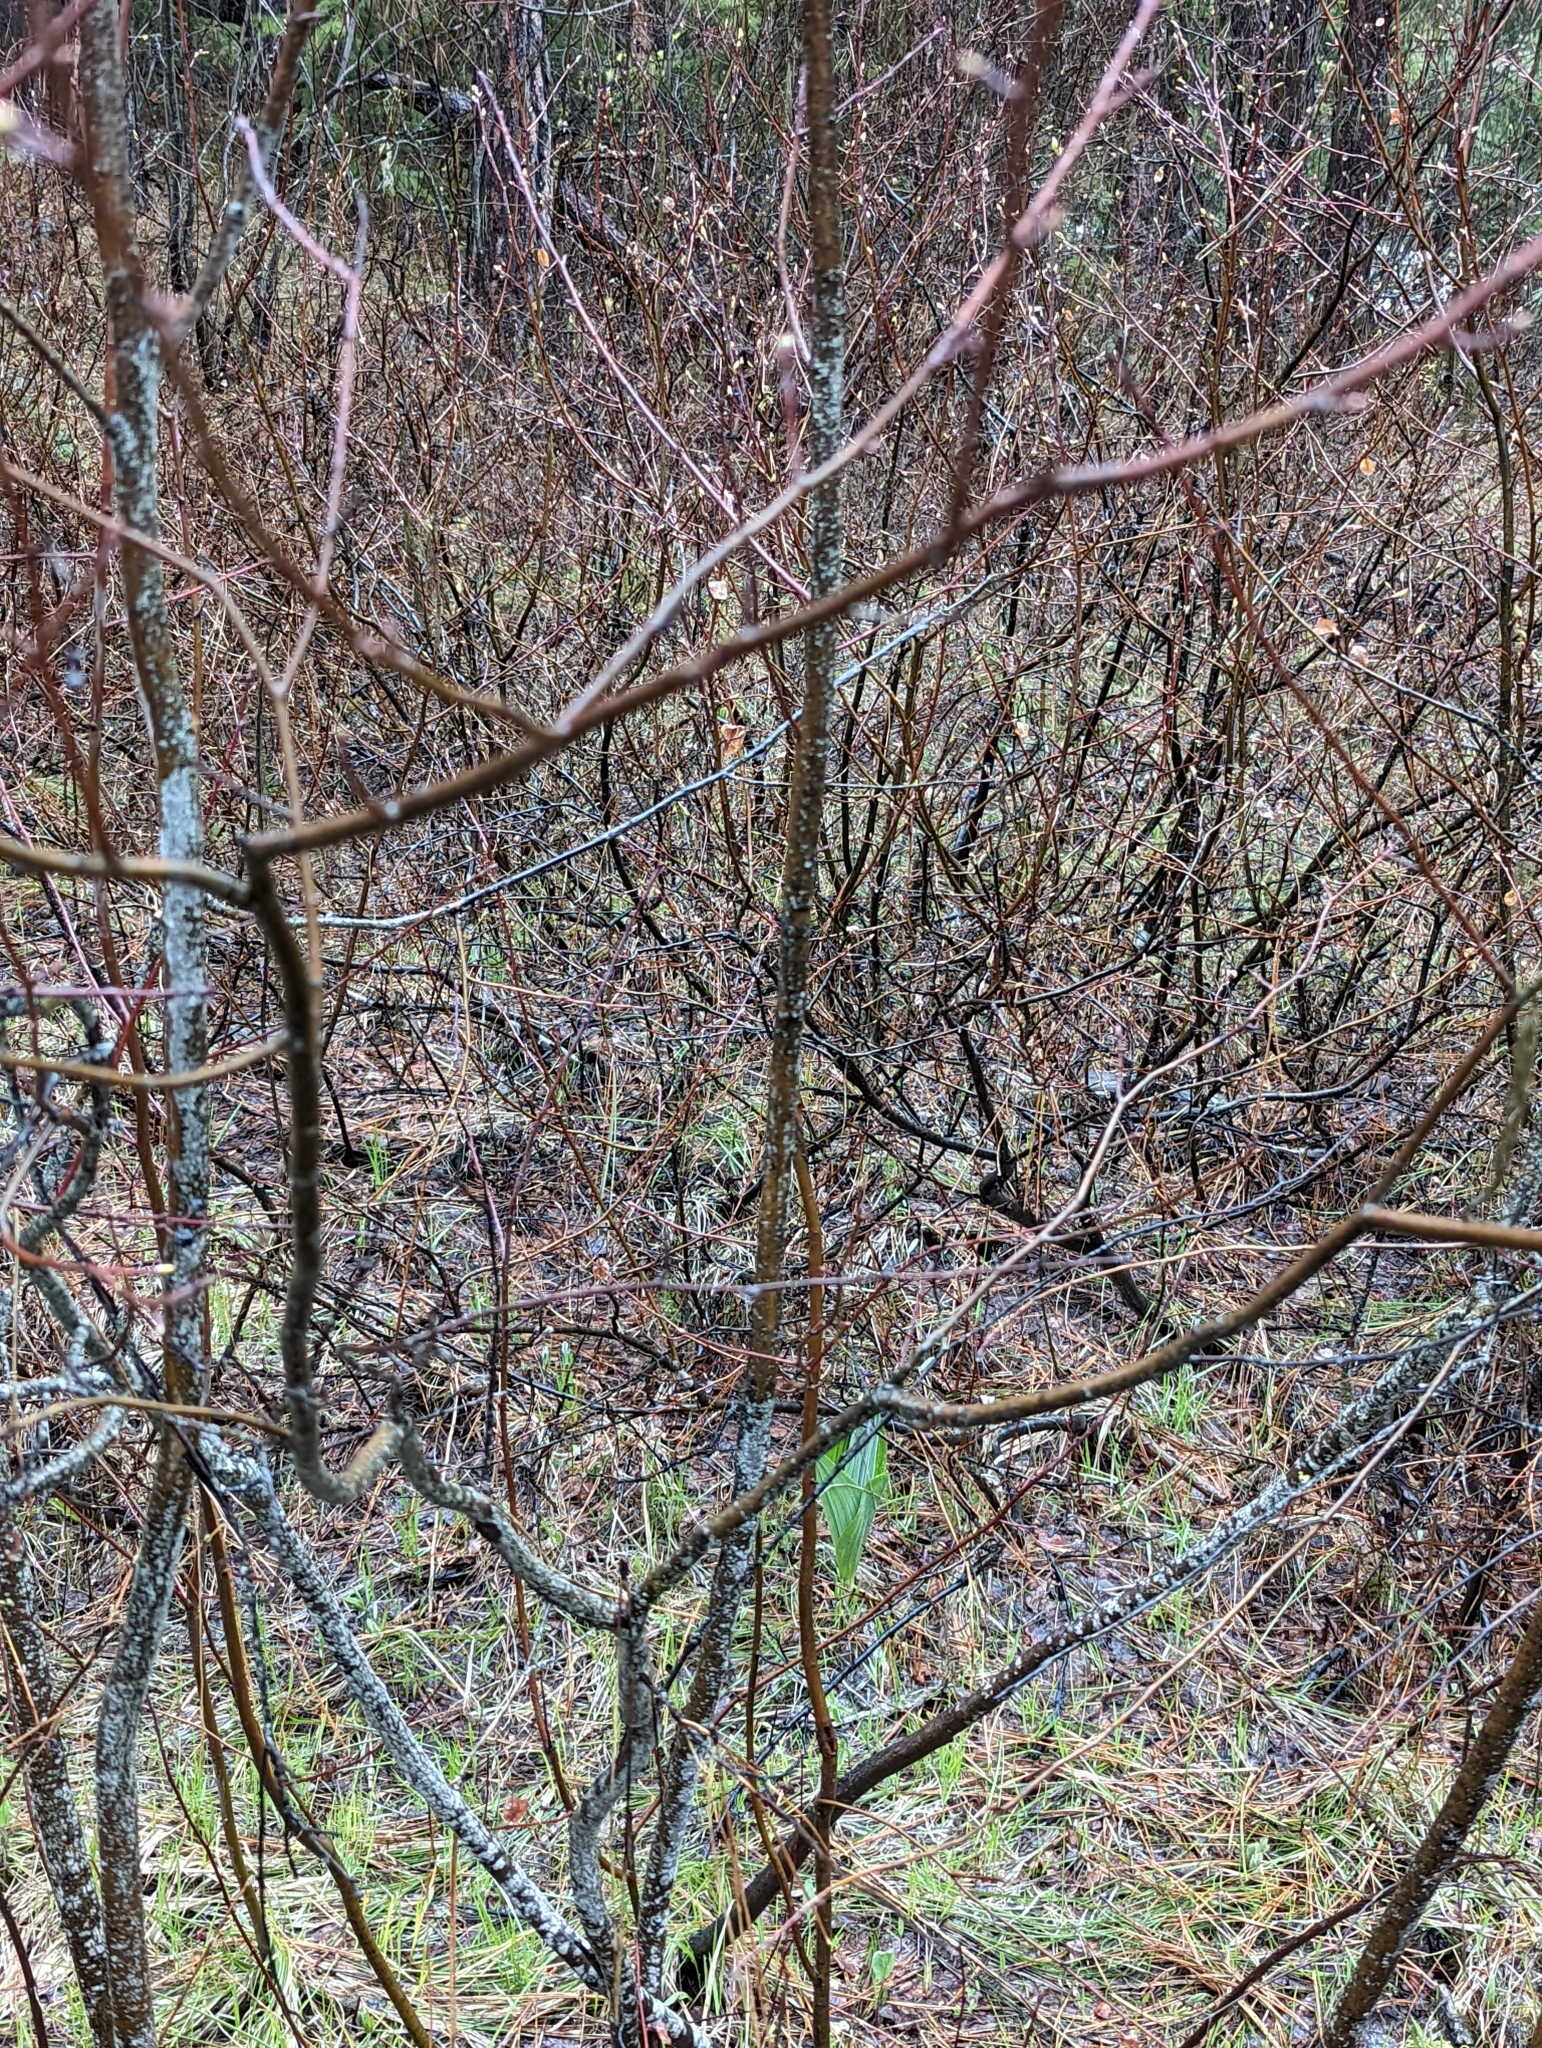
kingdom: Plantae
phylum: Tracheophyta
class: Magnoliopsida
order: Rosales
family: Rosaceae
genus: Amelanchier
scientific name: Amelanchier alnifolia
